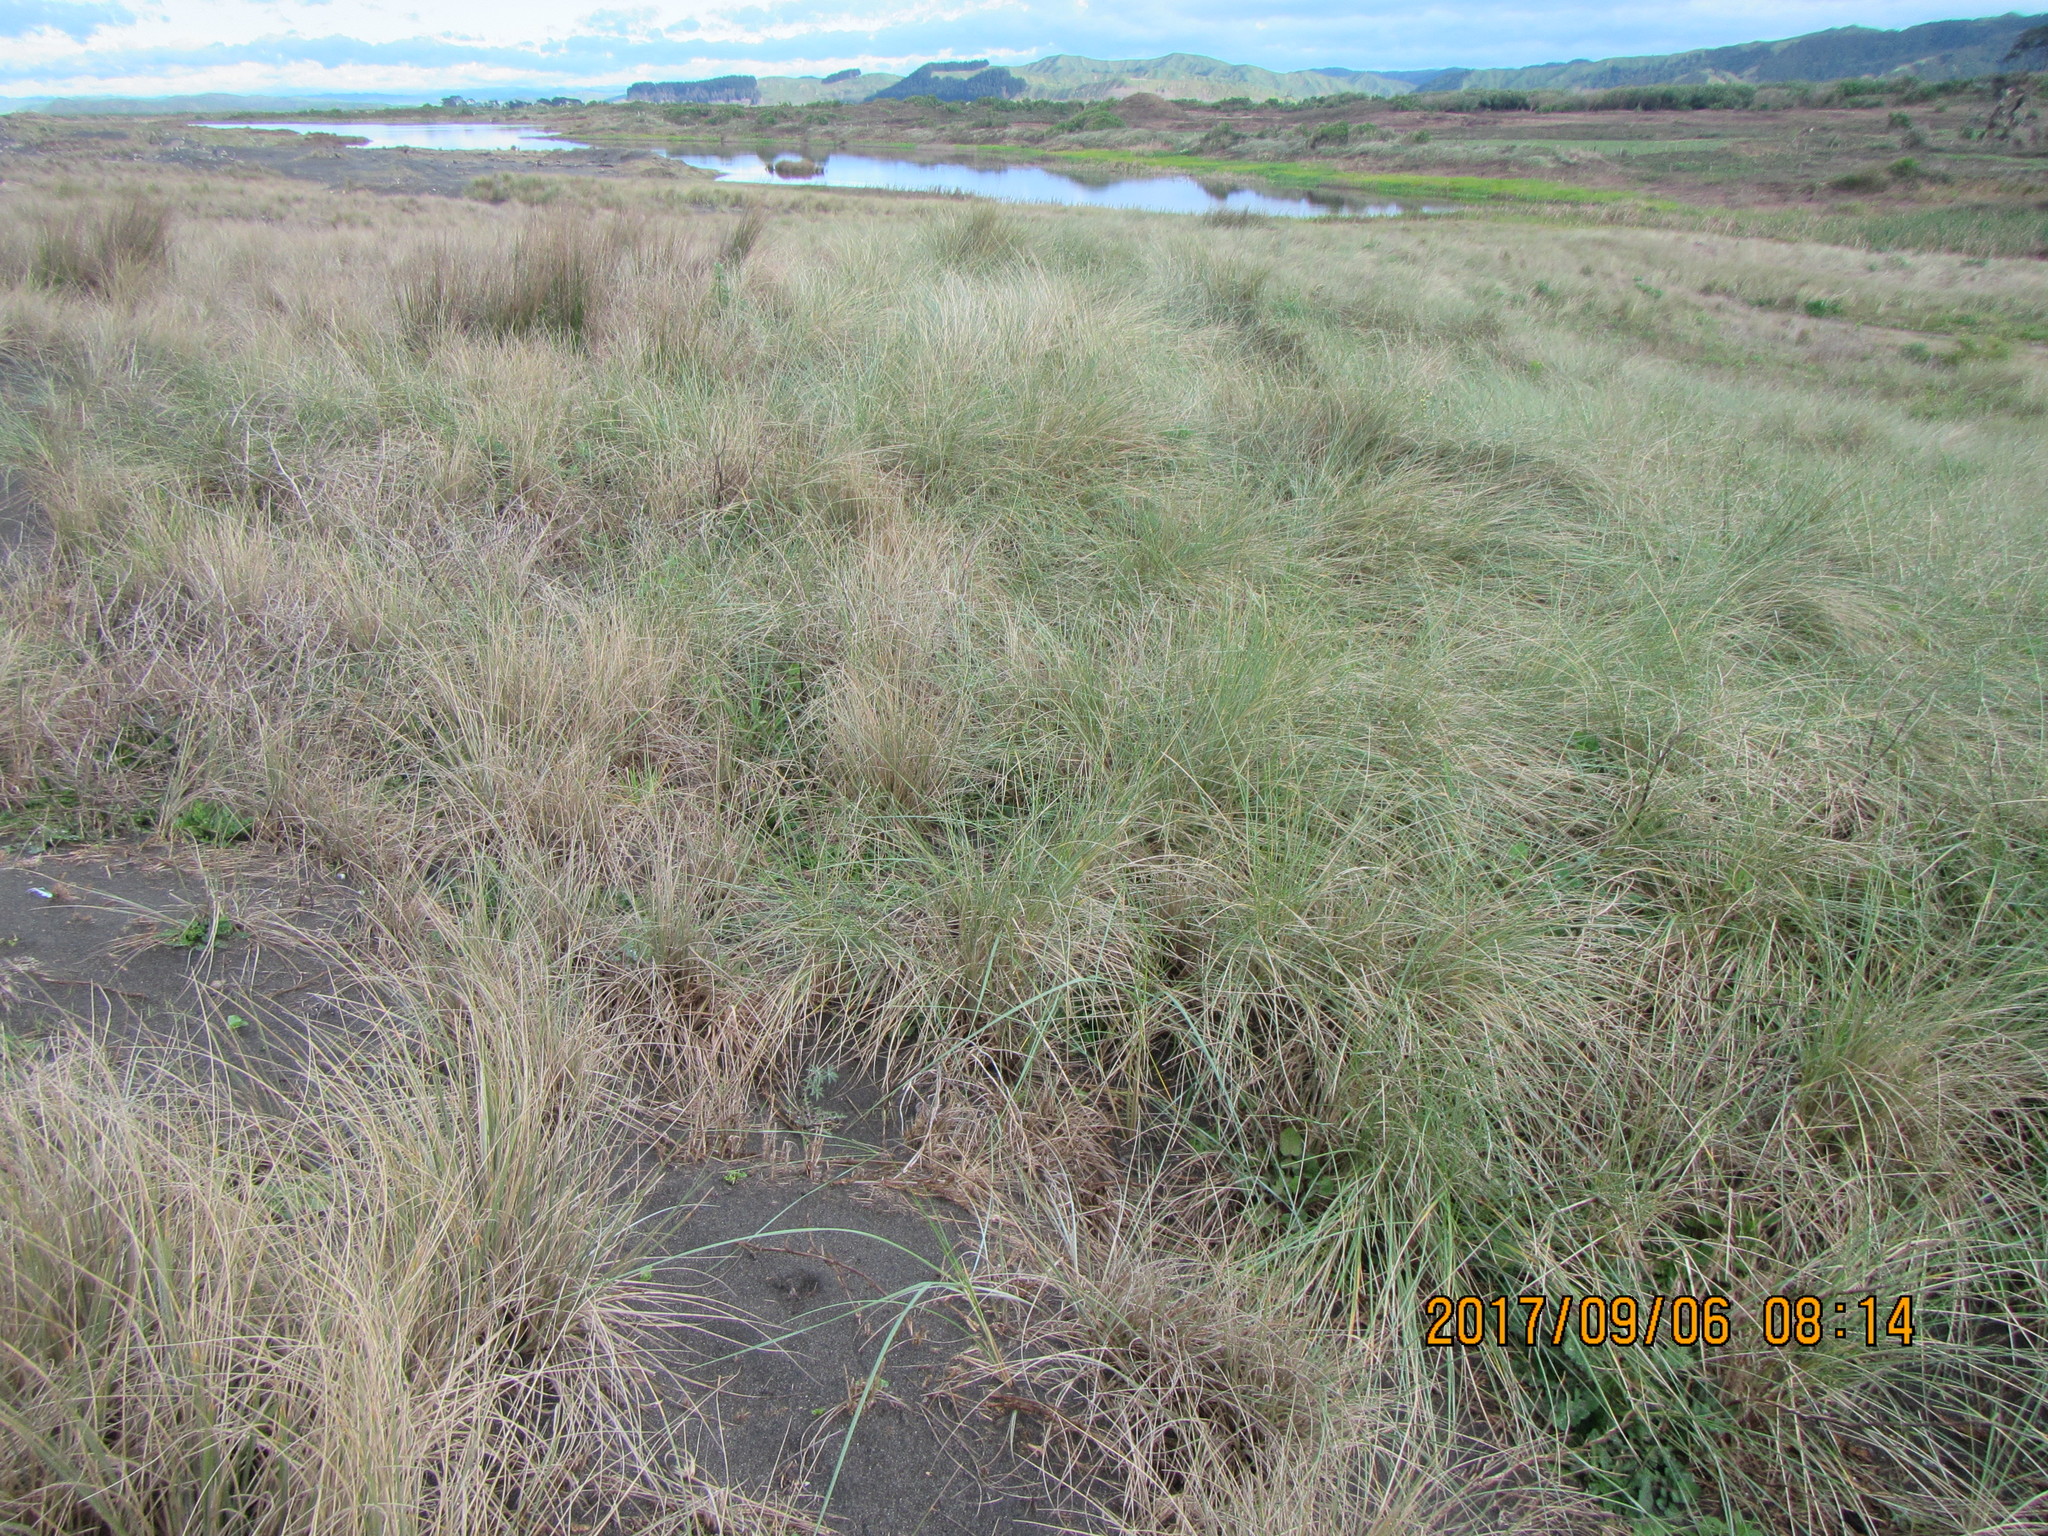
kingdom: Plantae
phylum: Tracheophyta
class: Liliopsida
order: Poales
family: Poaceae
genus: Calamagrostis
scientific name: Calamagrostis arenaria
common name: European beachgrass
